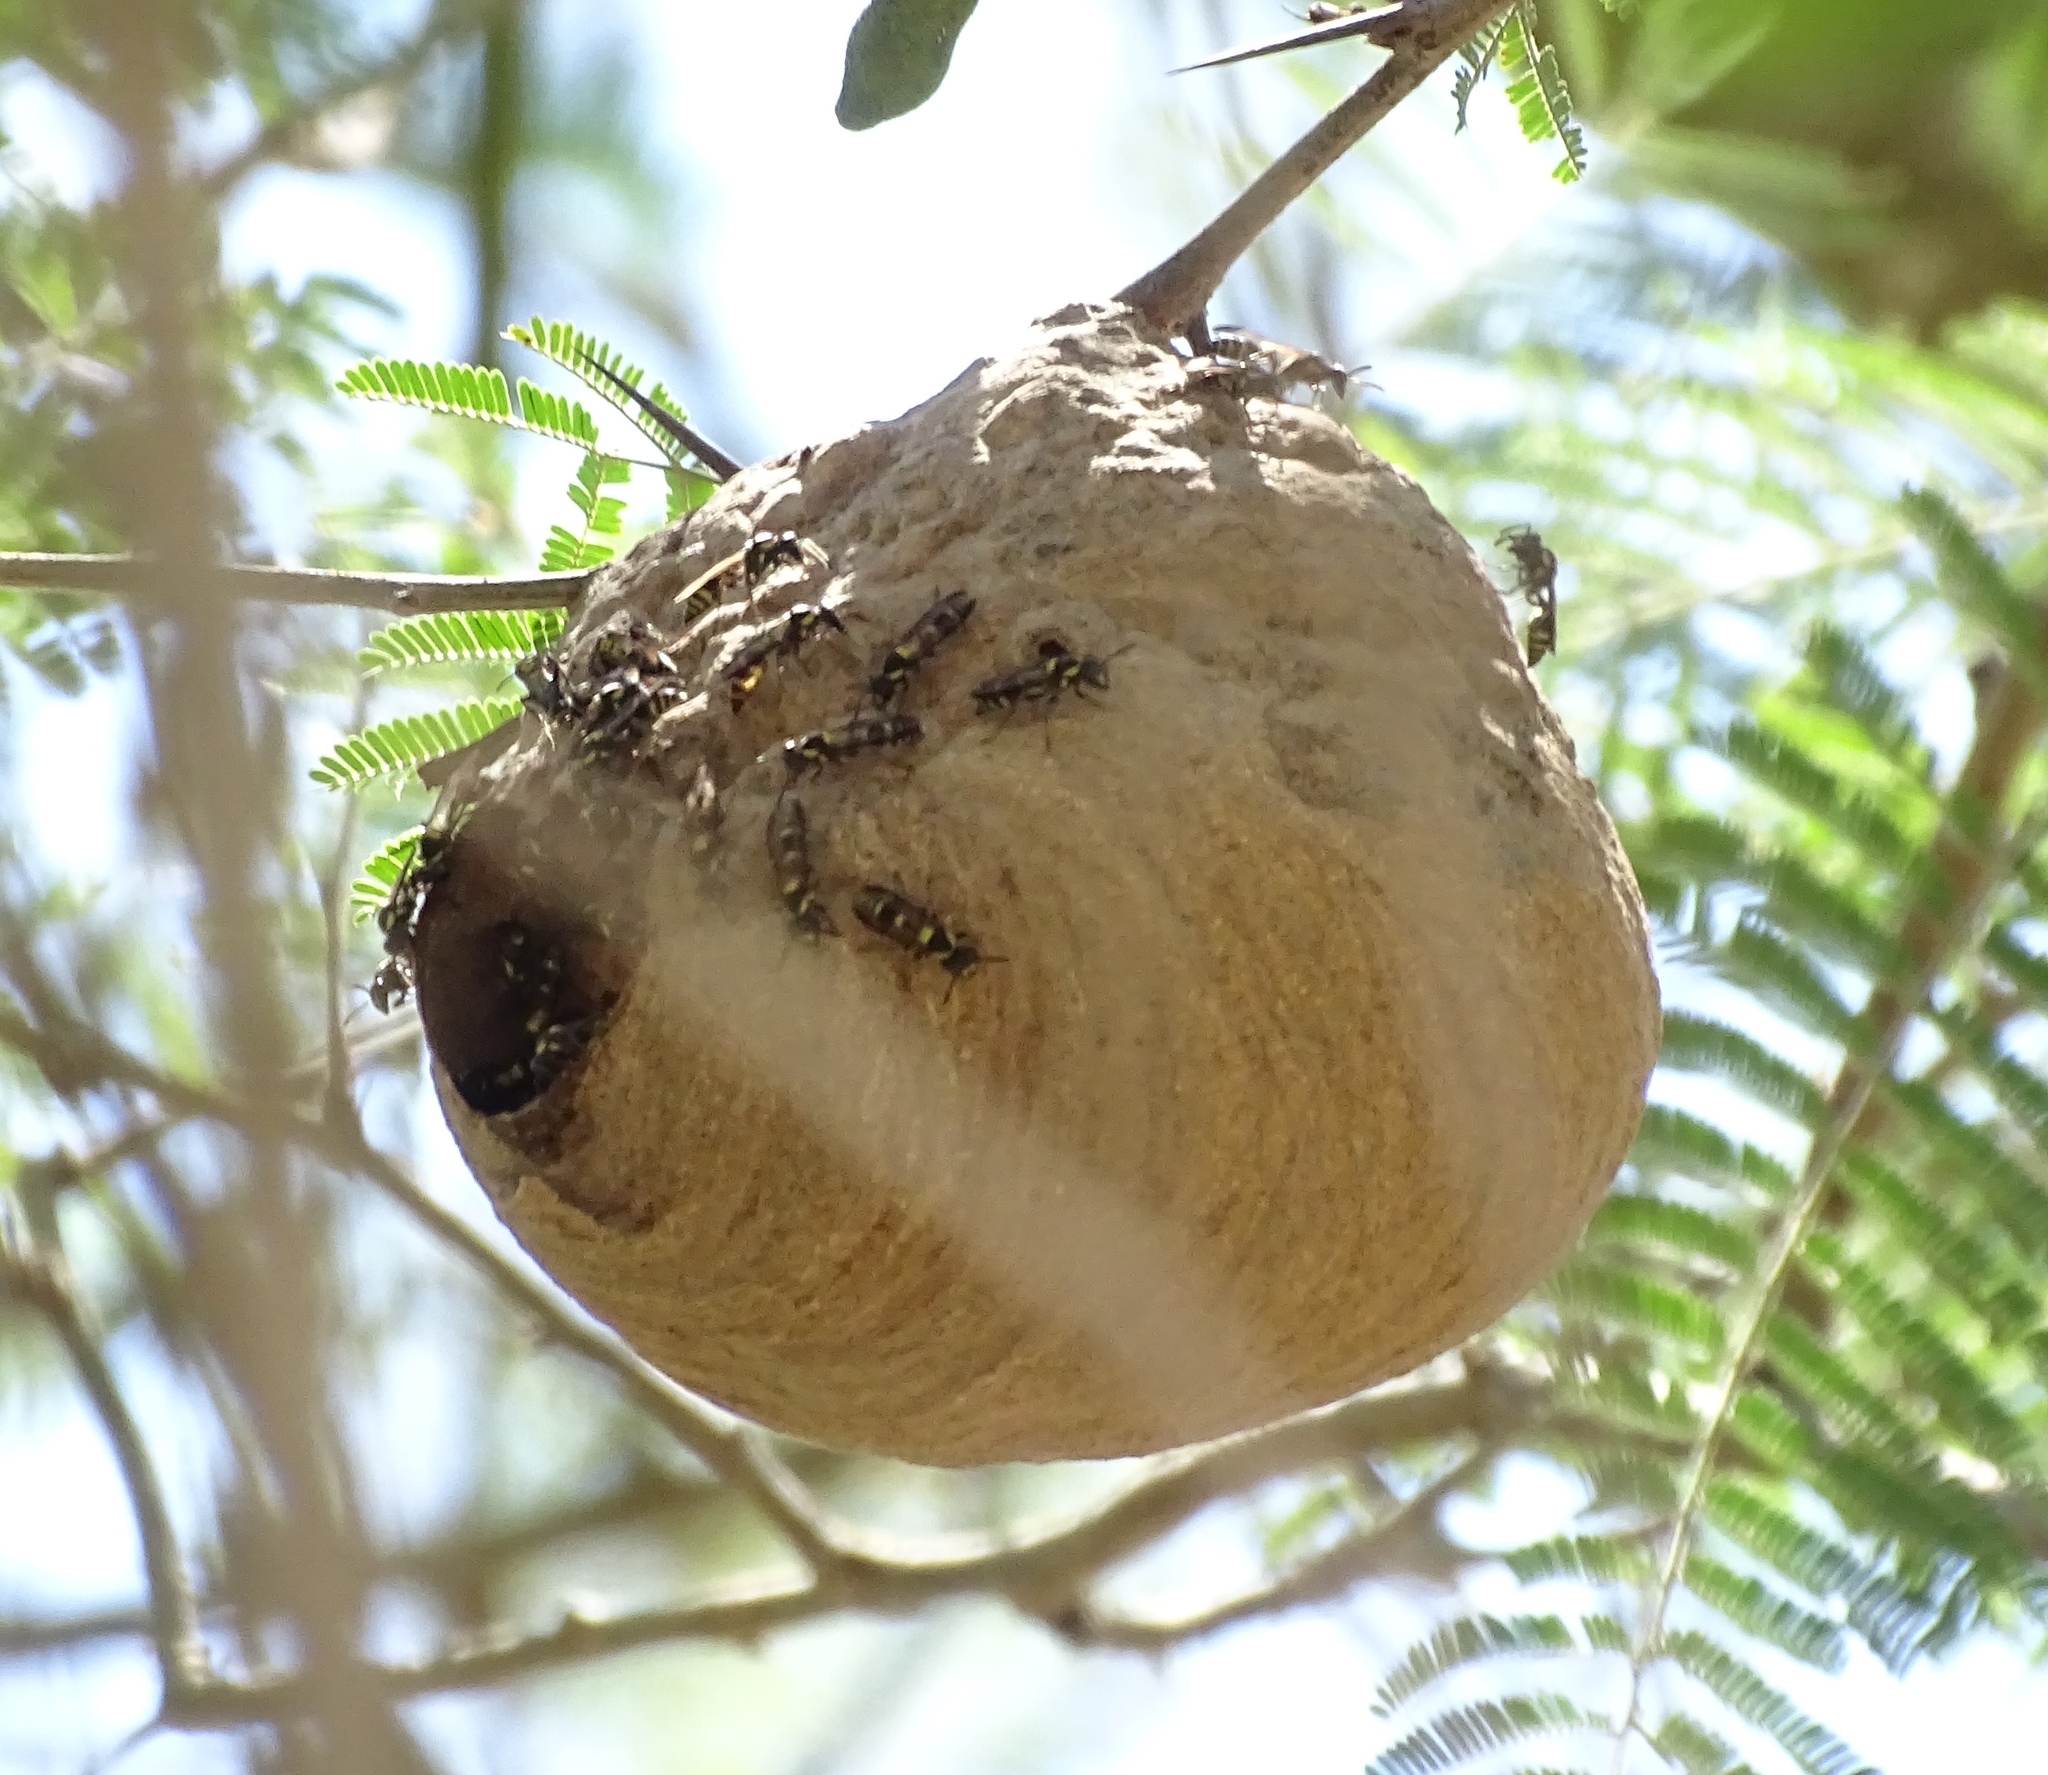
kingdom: Animalia
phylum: Arthropoda
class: Insecta
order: Hymenoptera
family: Eumenidae
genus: Polybia
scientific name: Polybia occidentalis
